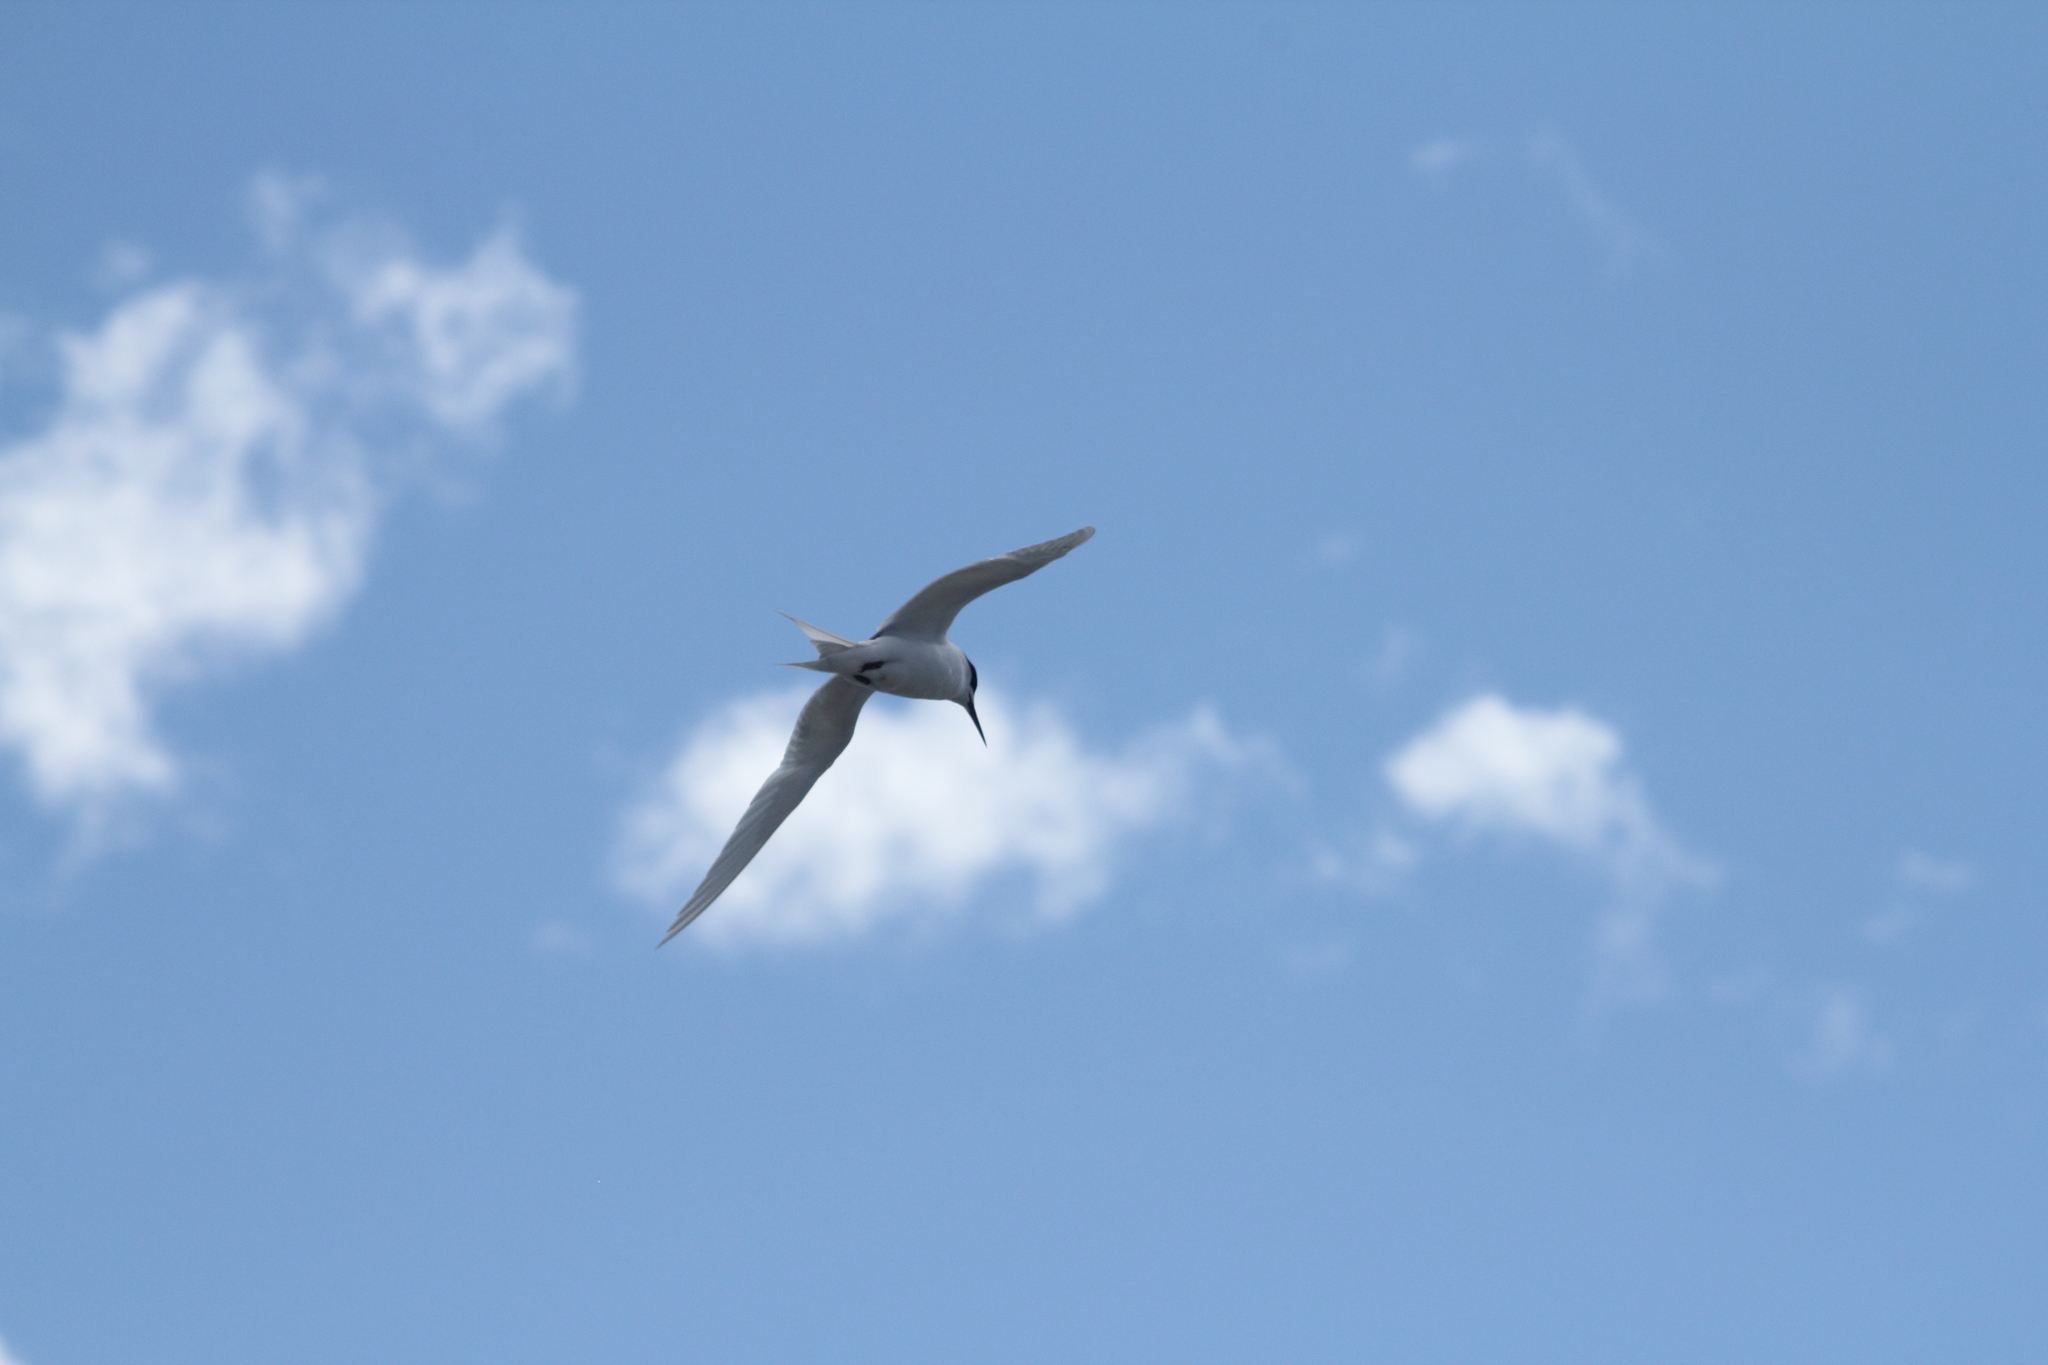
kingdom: Animalia
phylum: Chordata
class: Aves
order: Charadriiformes
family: Laridae
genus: Sterna
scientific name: Sterna striata
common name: White-fronted tern
